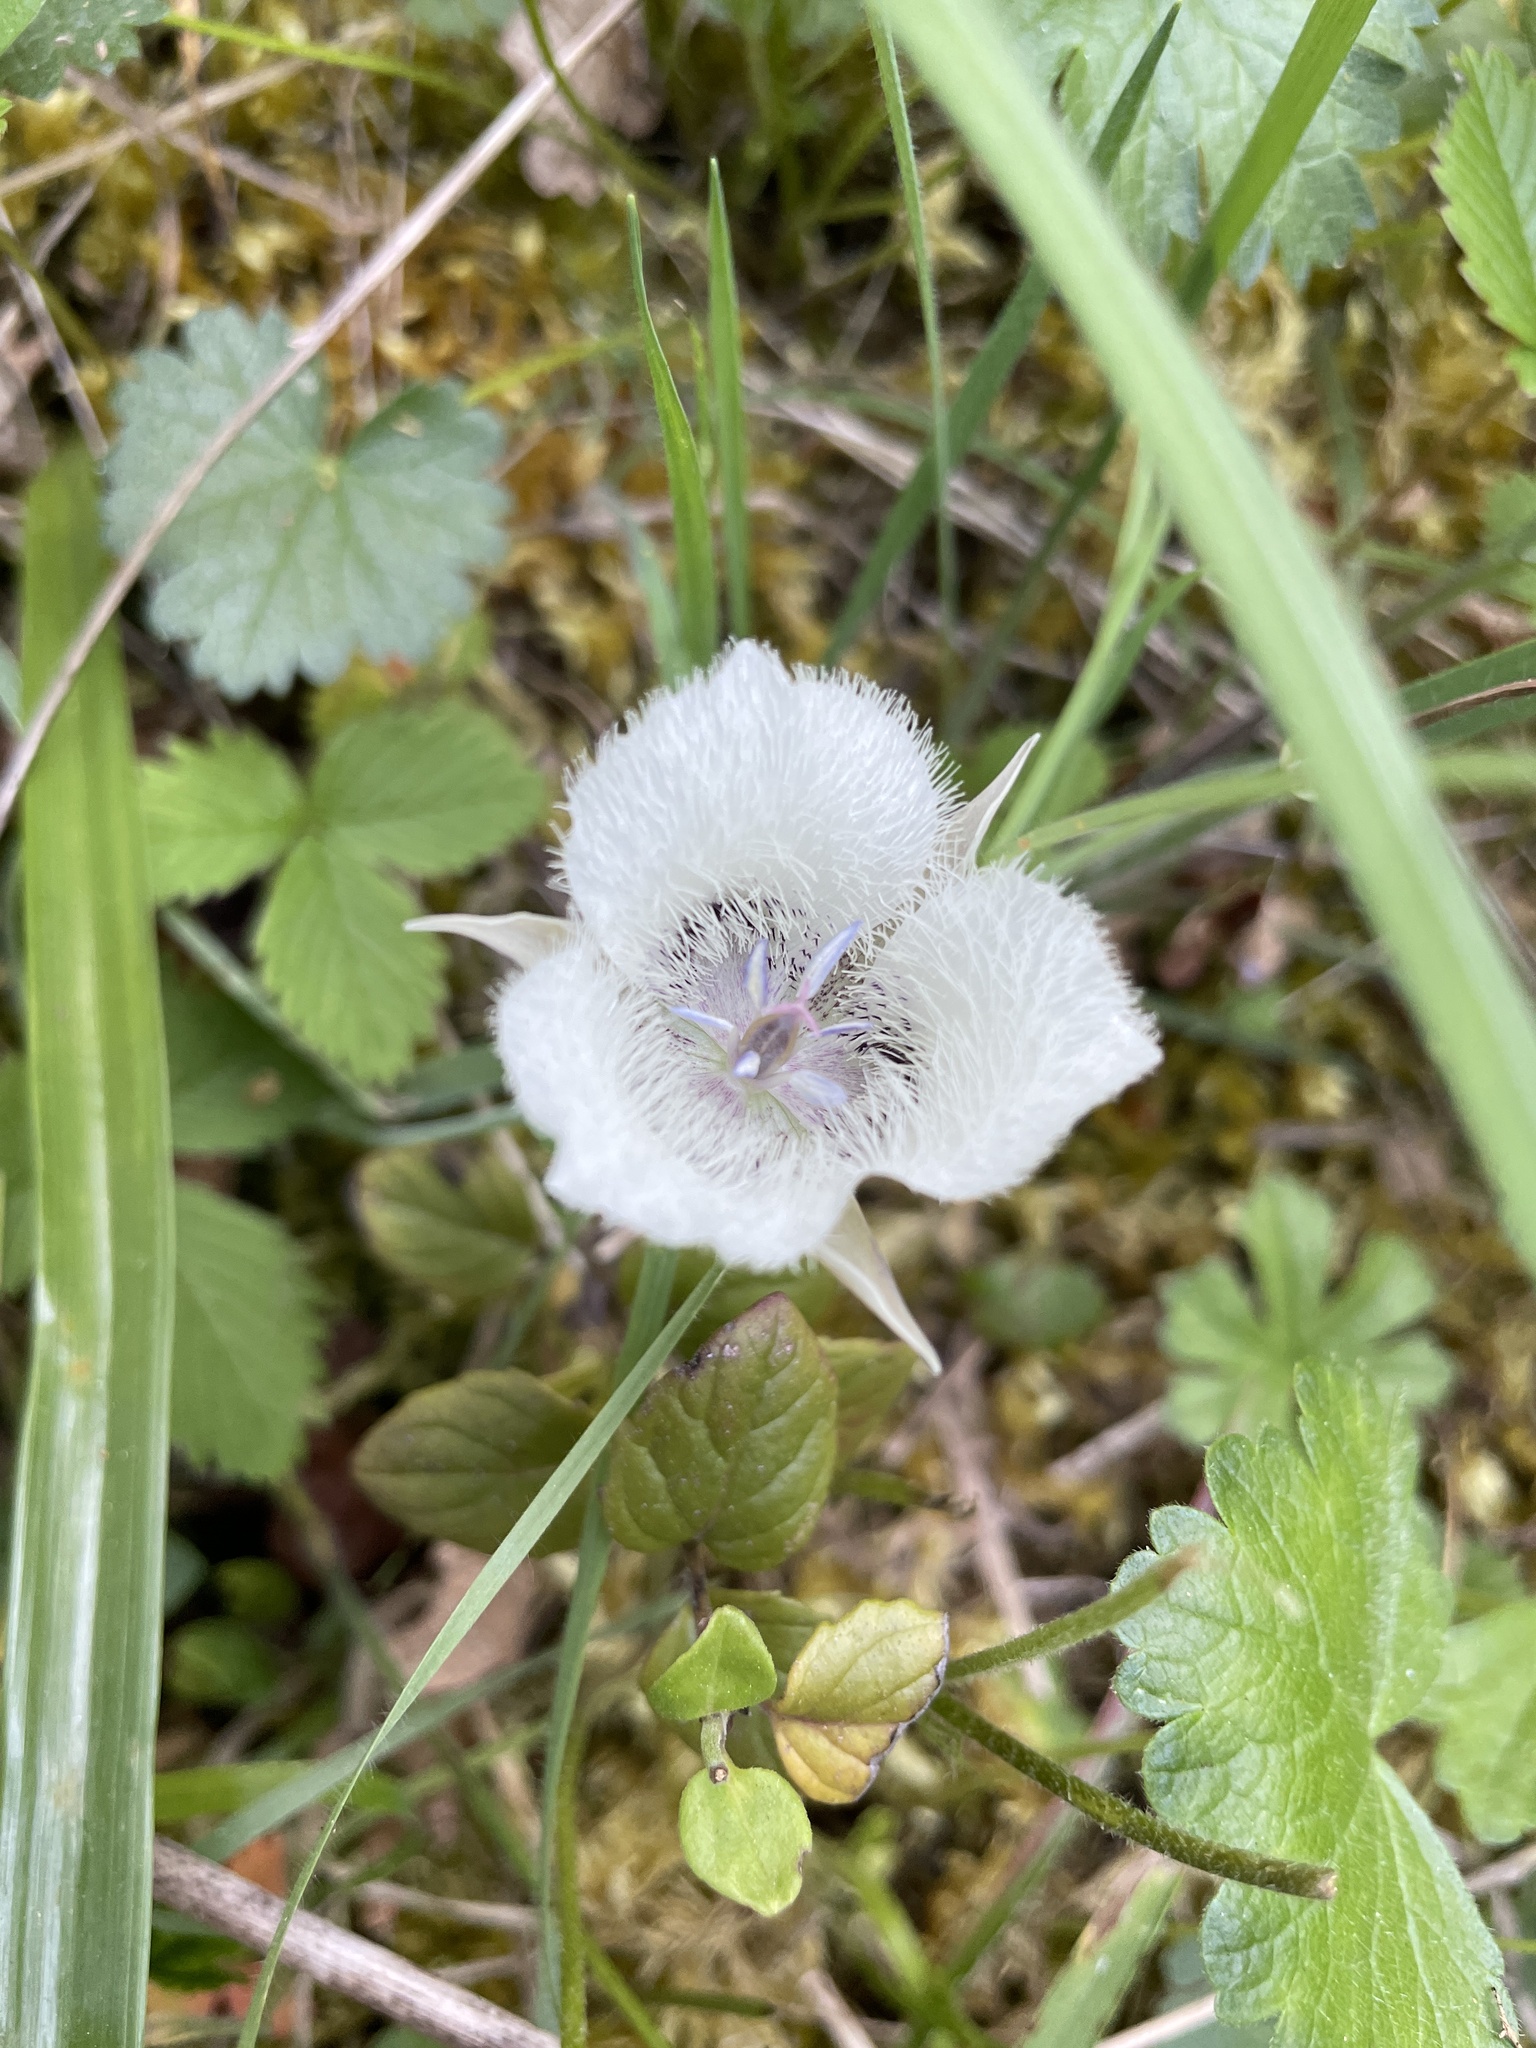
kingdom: Plantae
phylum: Tracheophyta
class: Liliopsida
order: Liliales
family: Liliaceae
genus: Calochortus
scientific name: Calochortus tolmiei
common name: Pussy-ears
